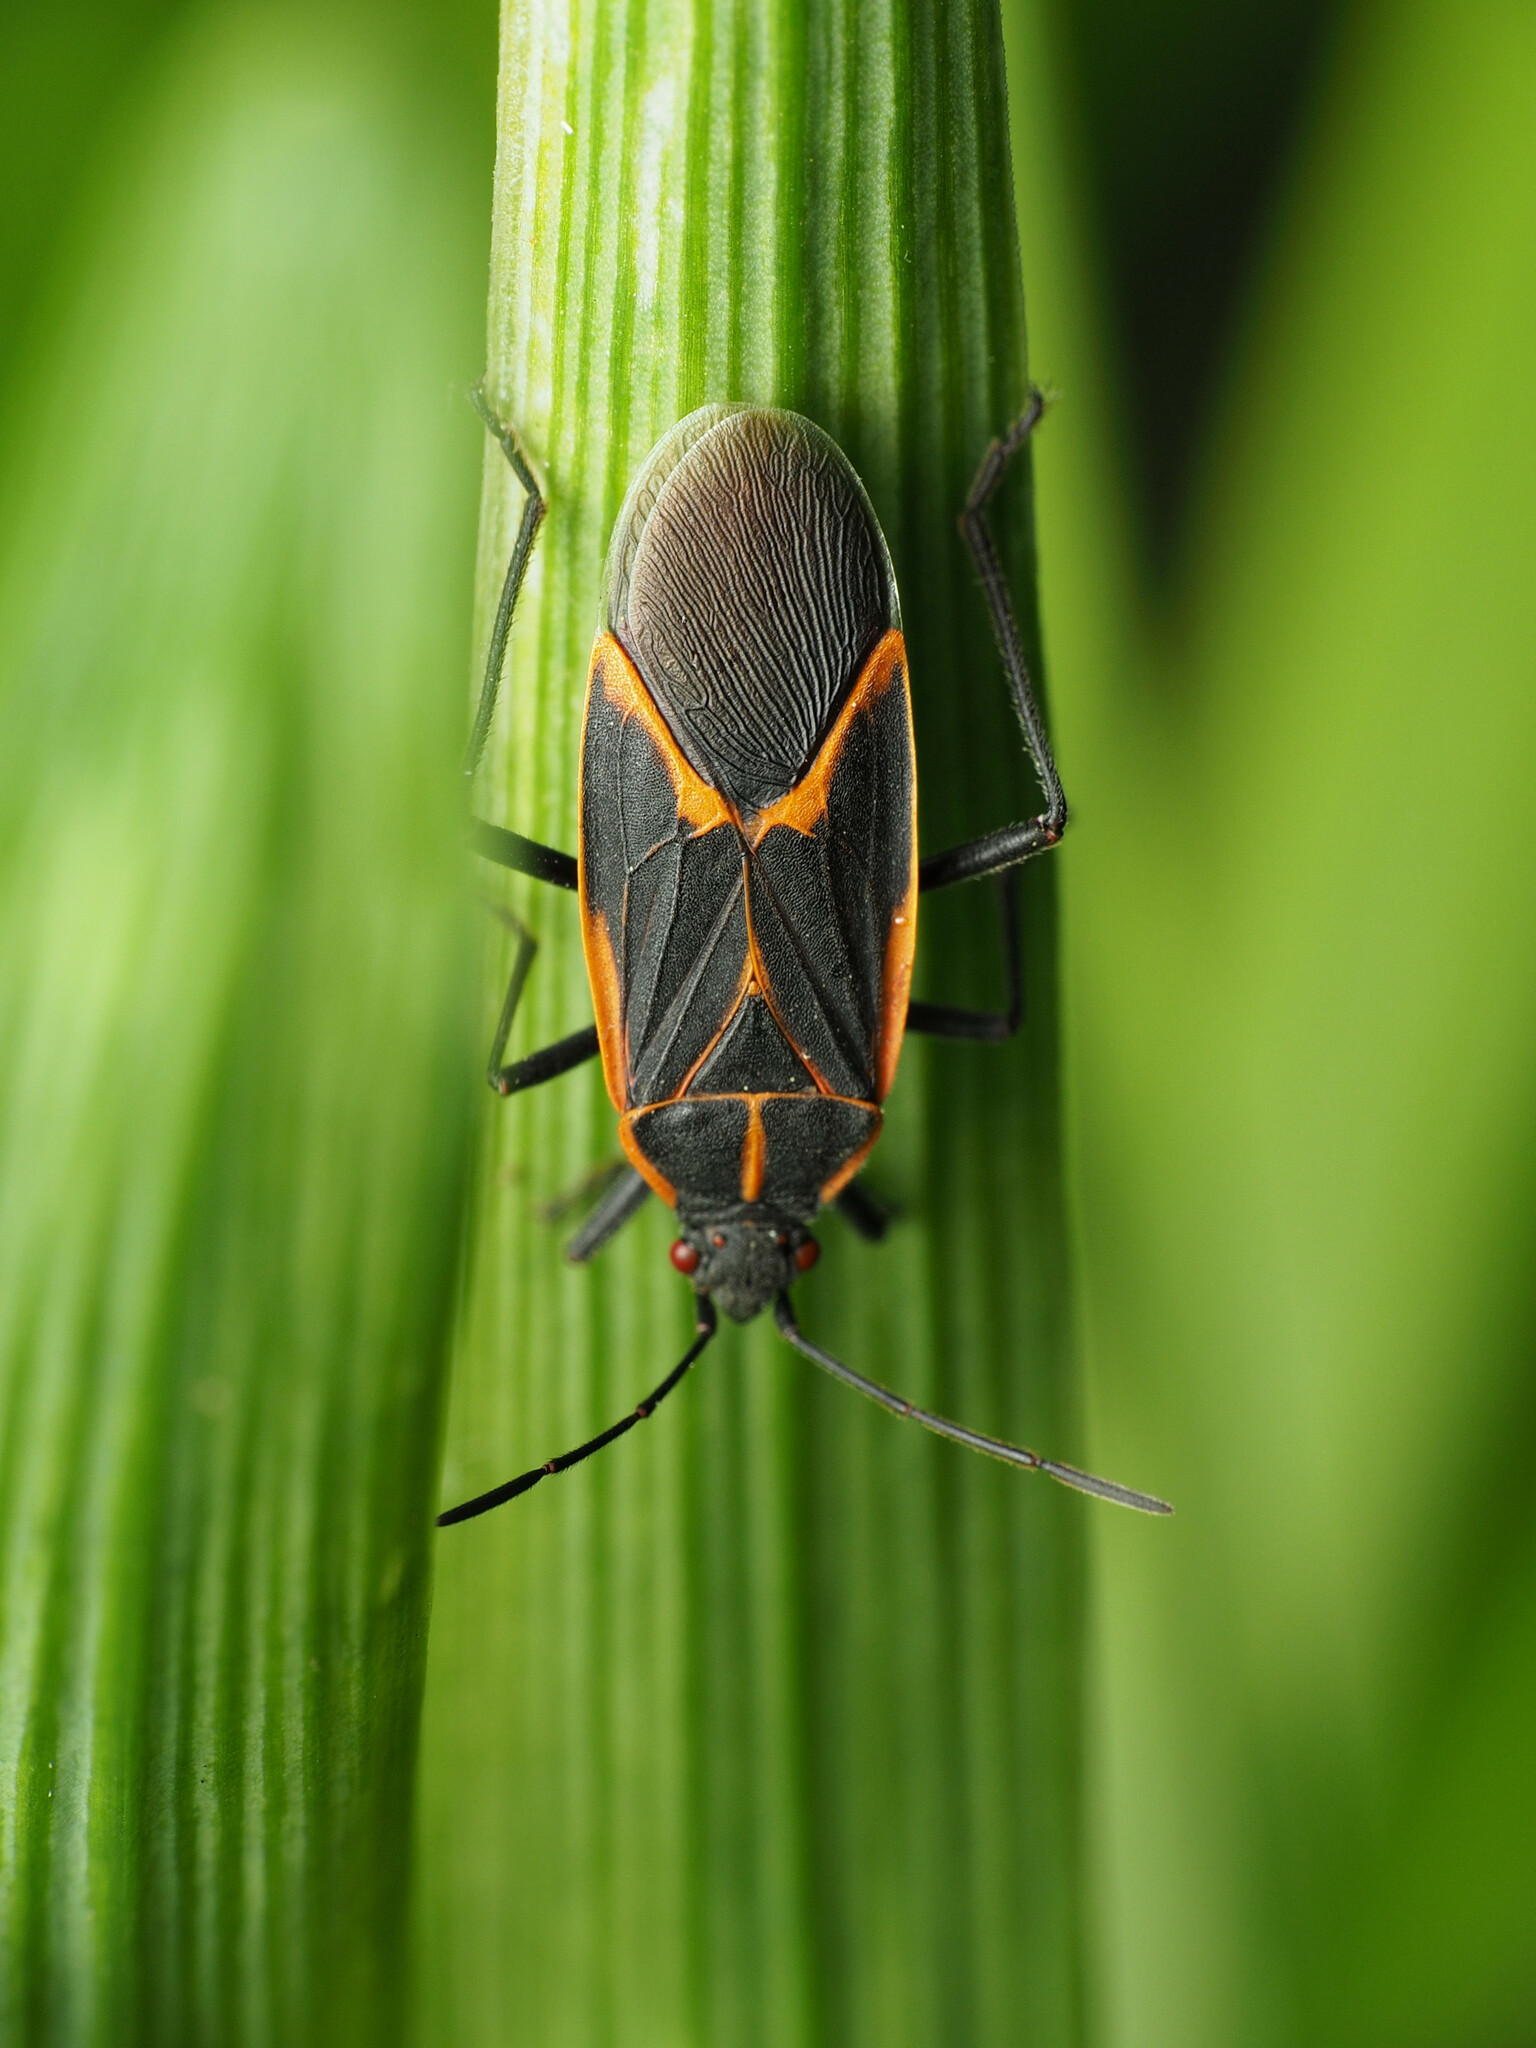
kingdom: Animalia
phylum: Arthropoda
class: Insecta
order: Hemiptera
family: Rhopalidae
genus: Boisea
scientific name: Boisea trivittata
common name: Boxelder bug
